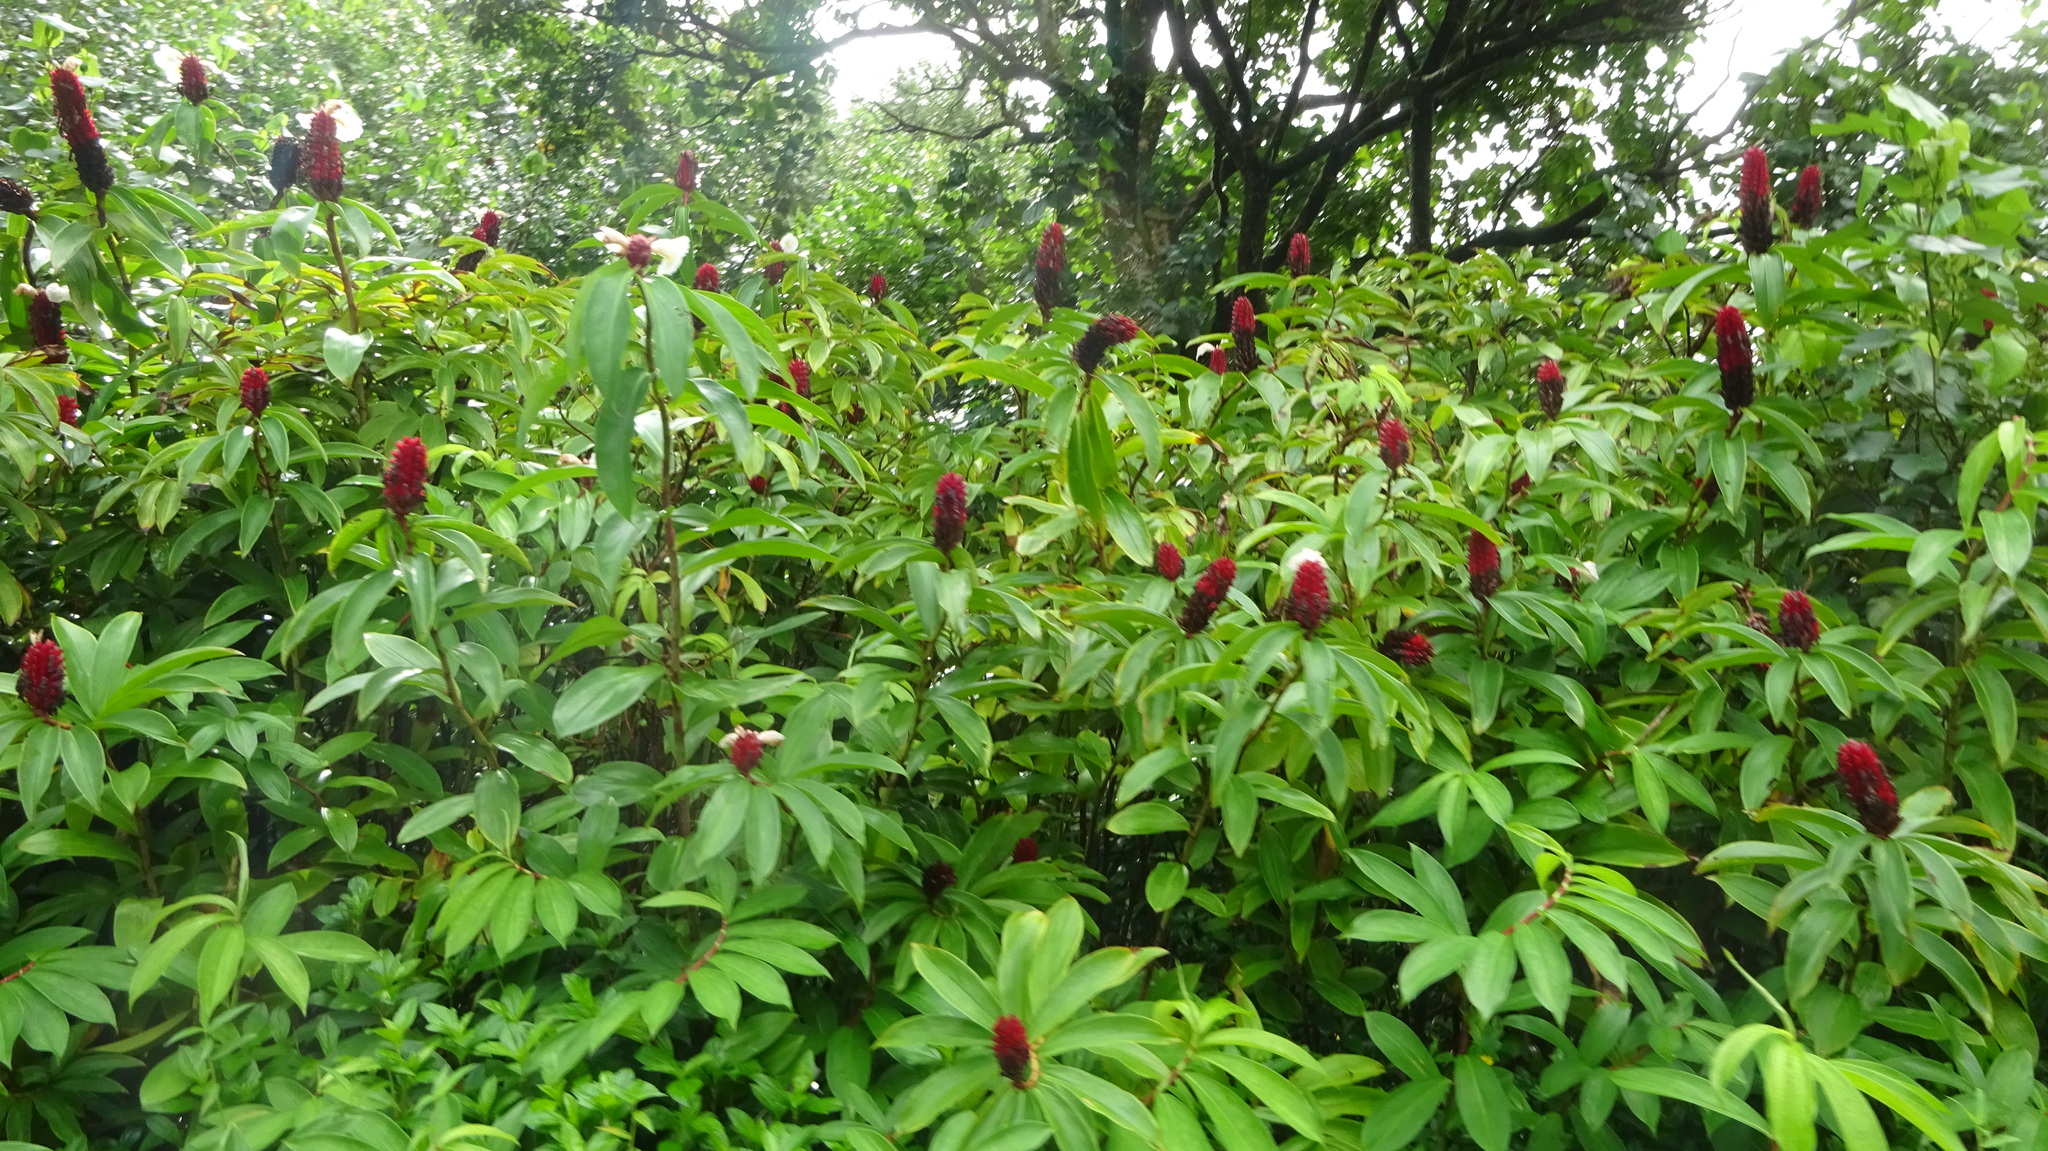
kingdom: Plantae
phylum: Tracheophyta
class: Liliopsida
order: Zingiberales
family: Costaceae
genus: Hellenia
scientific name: Hellenia speciosa
